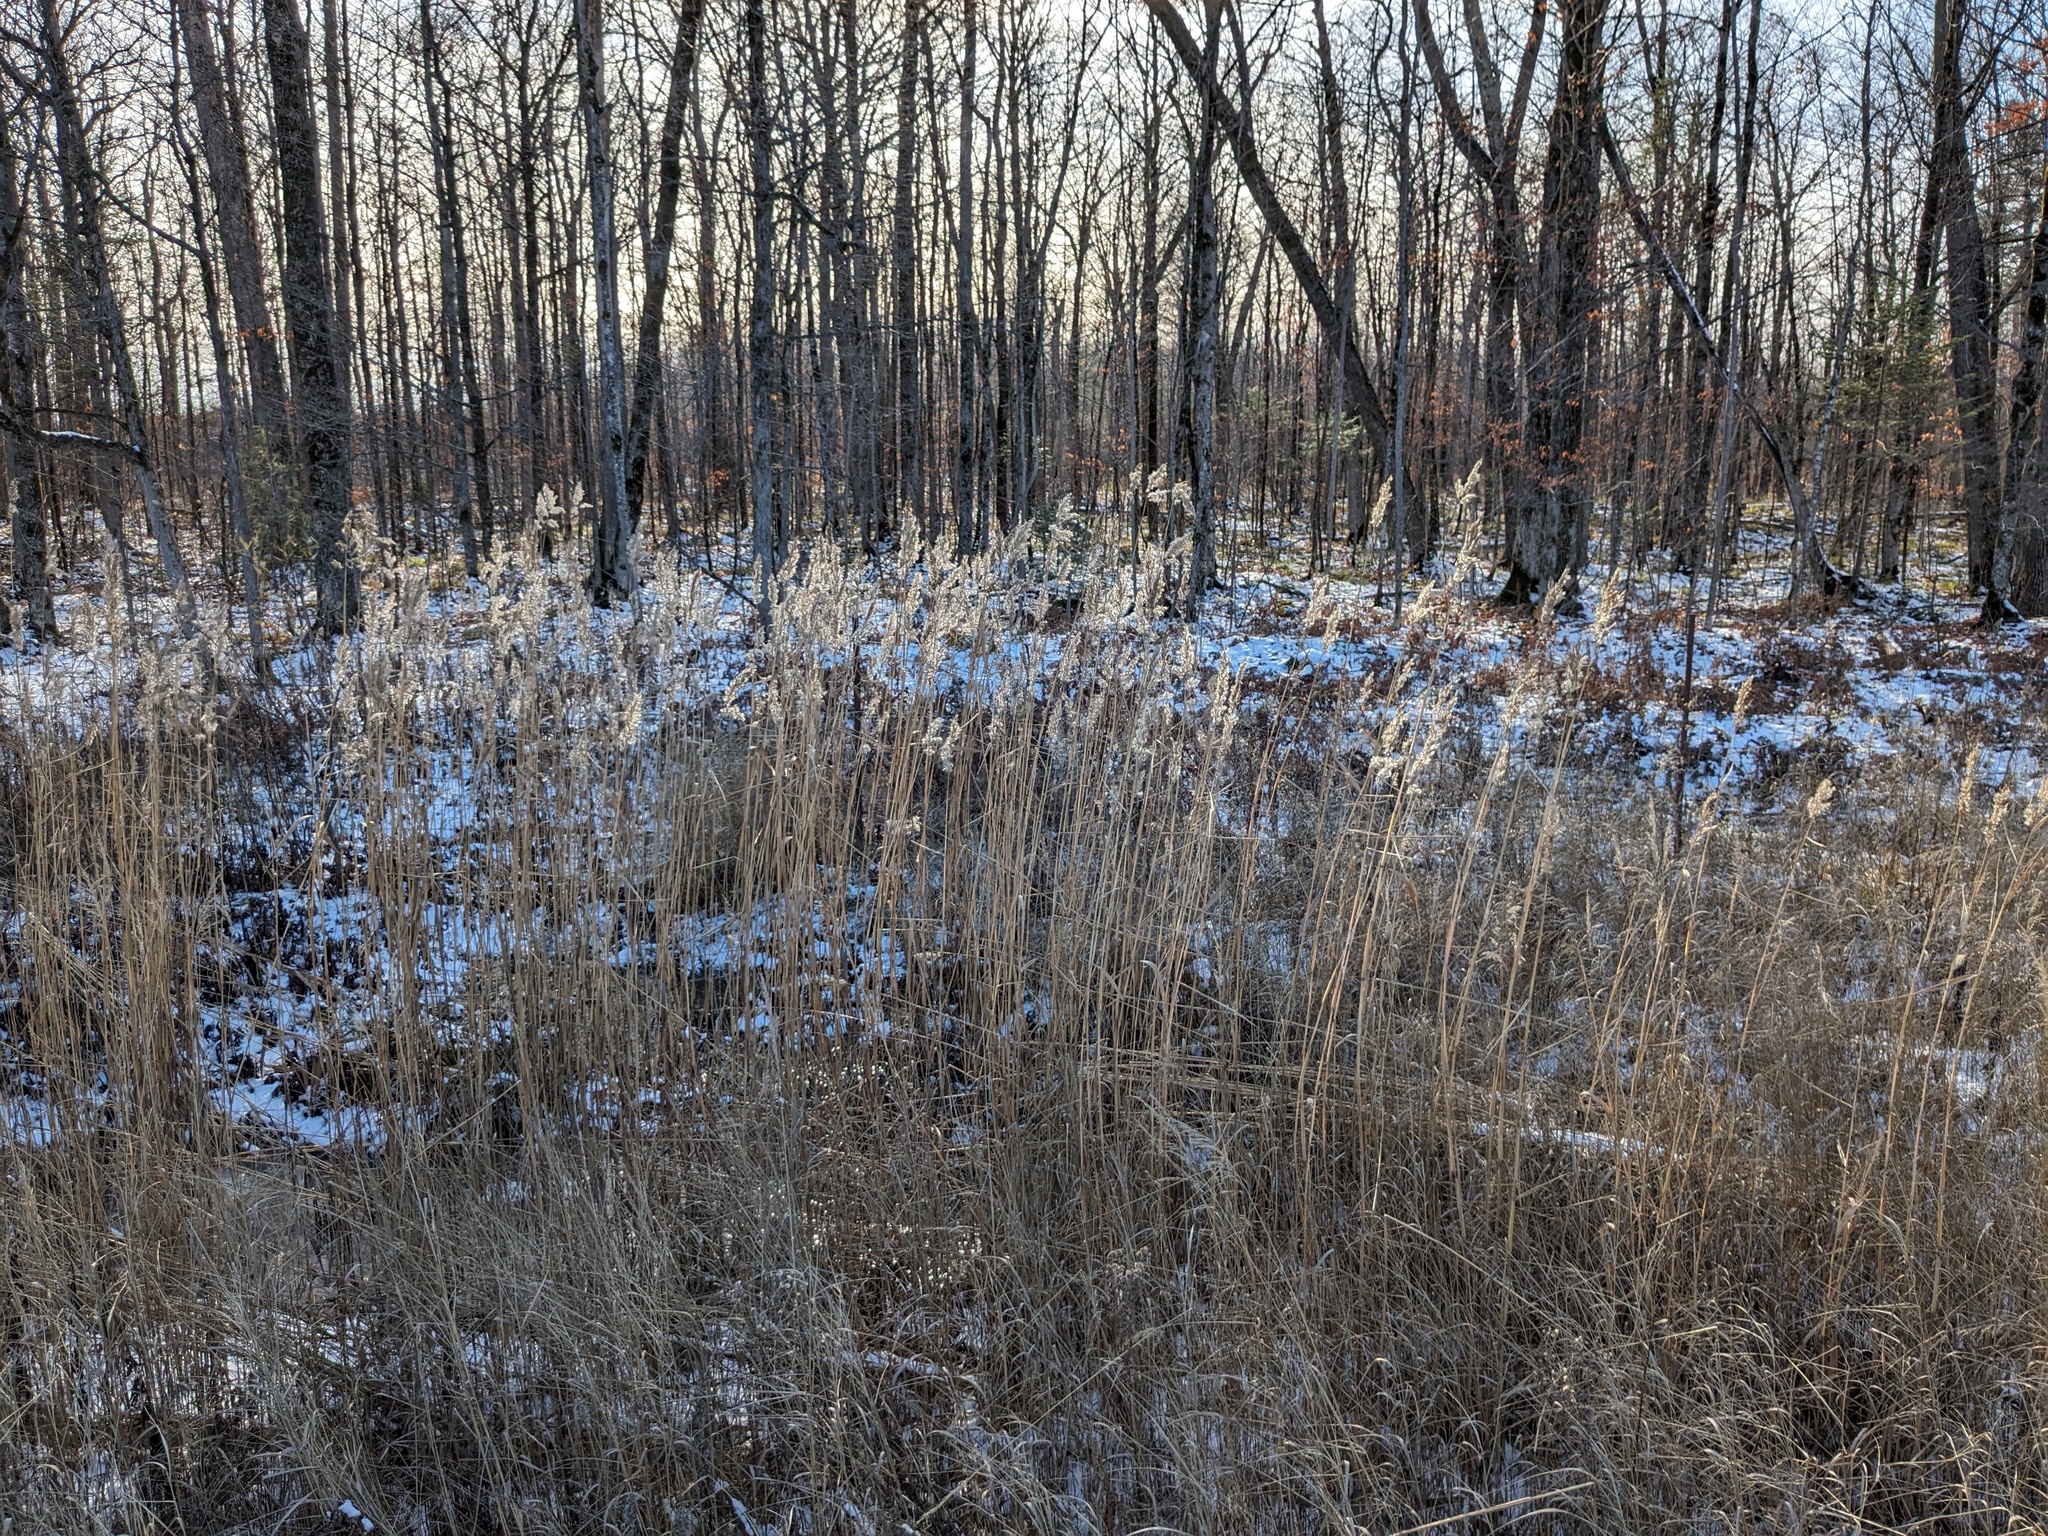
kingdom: Plantae
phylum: Tracheophyta
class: Liliopsida
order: Poales
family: Poaceae
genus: Phragmites
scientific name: Phragmites australis
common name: Common reed
